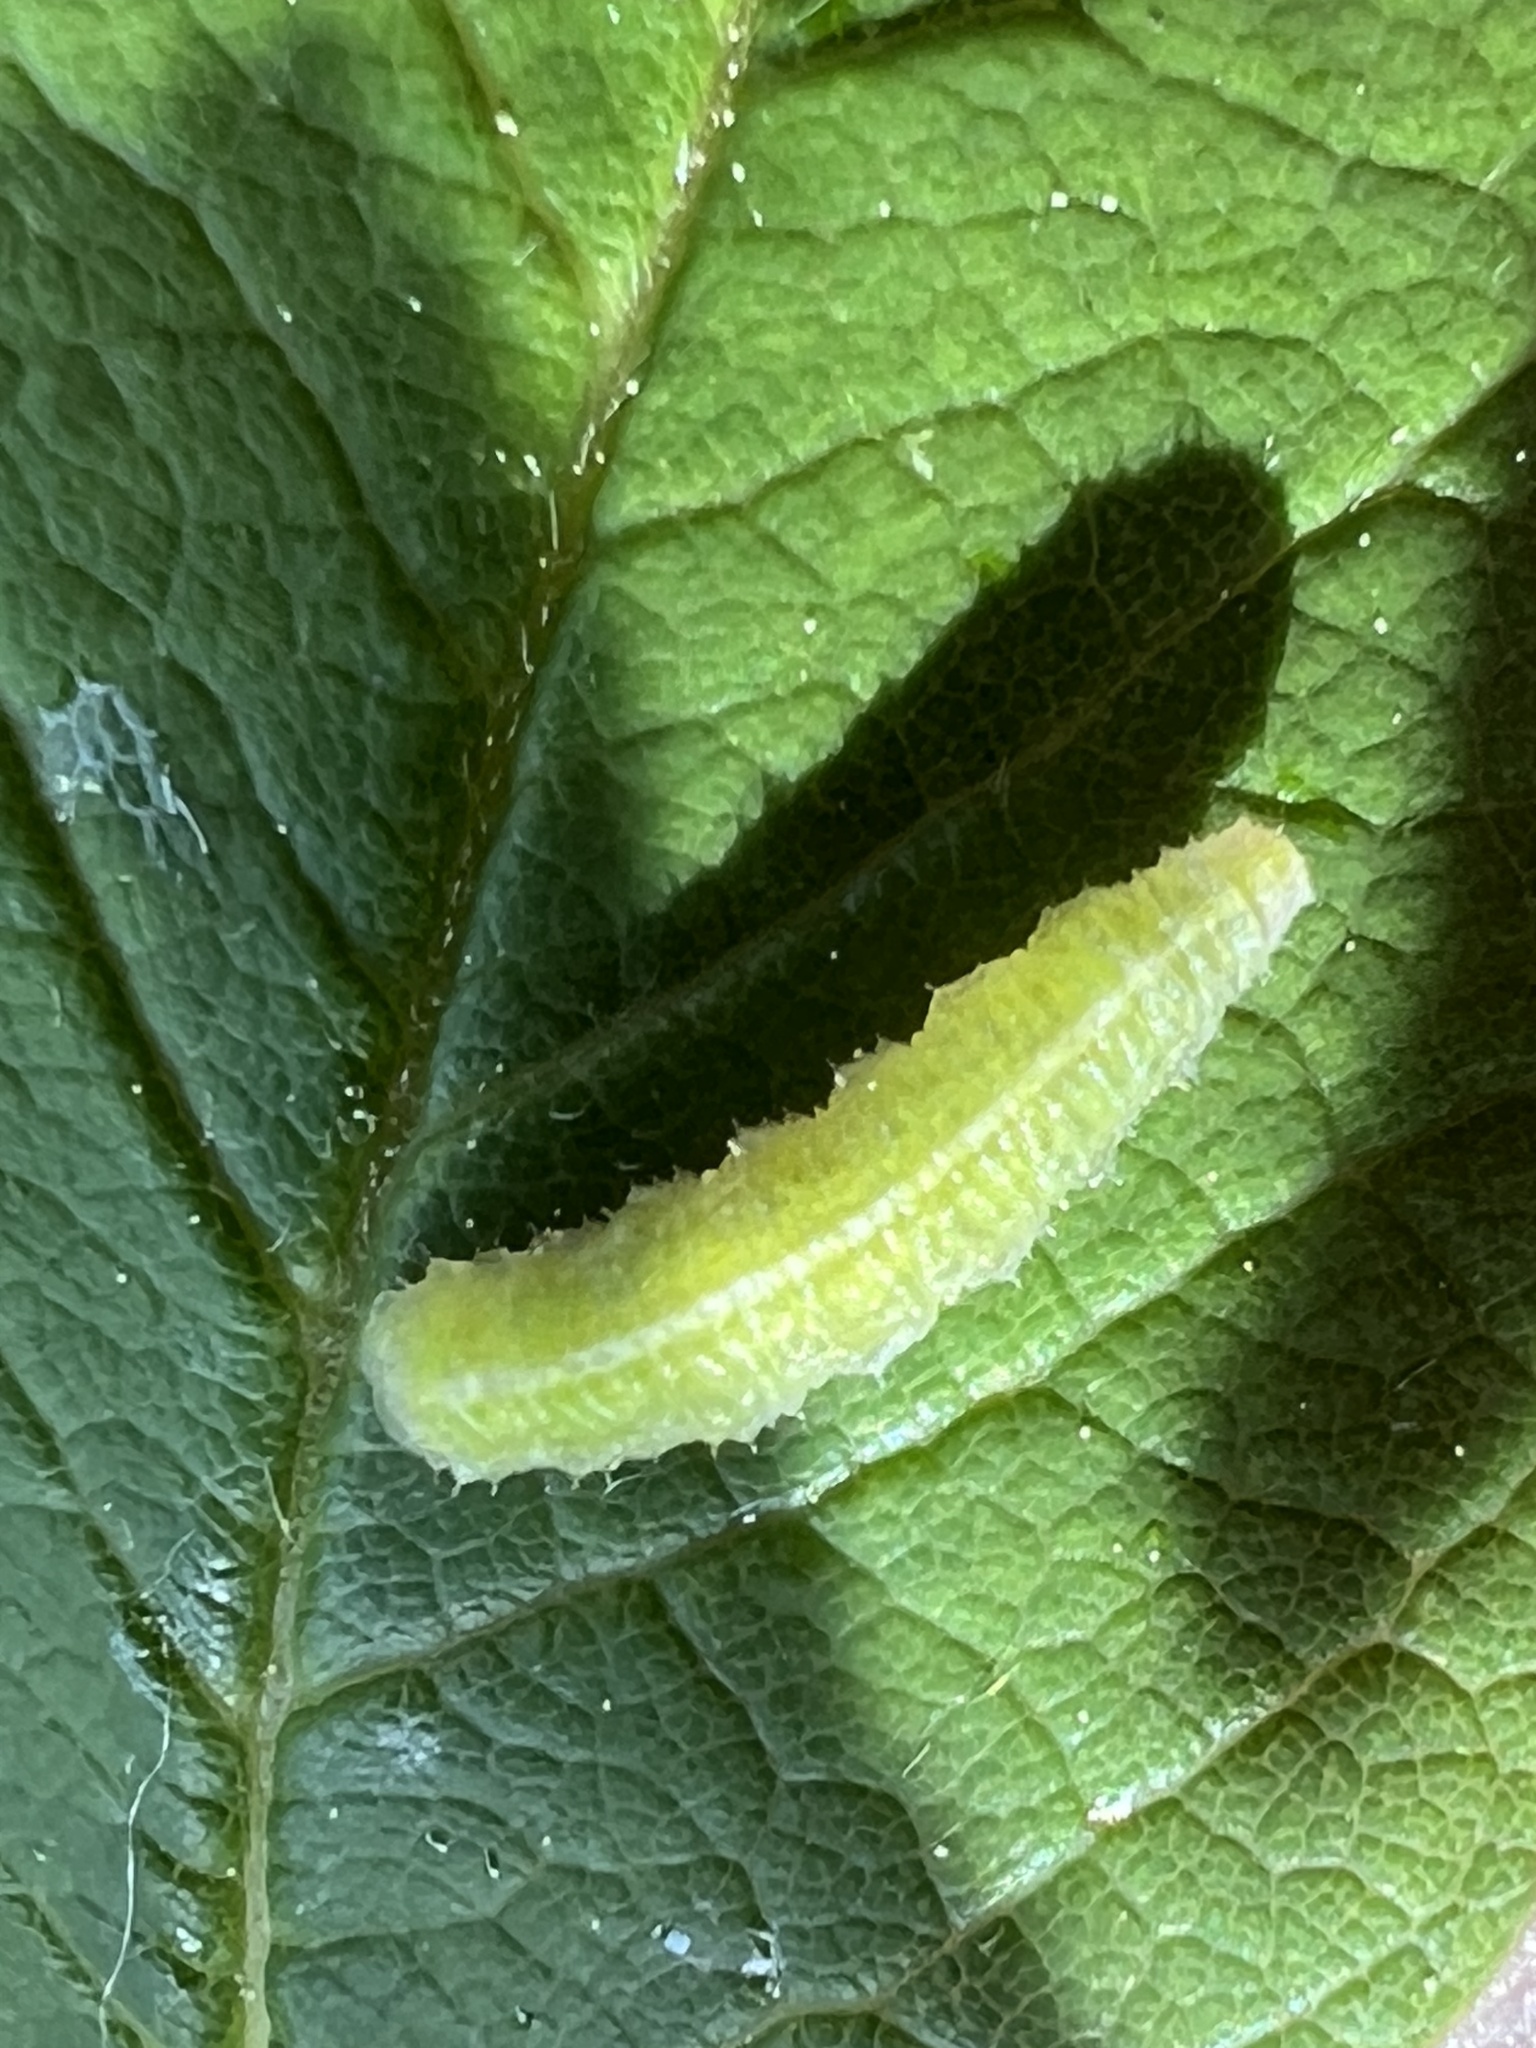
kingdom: Animalia
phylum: Arthropoda
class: Insecta
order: Diptera
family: Syrphidae
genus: Scaeva
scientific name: Scaeva affinis
